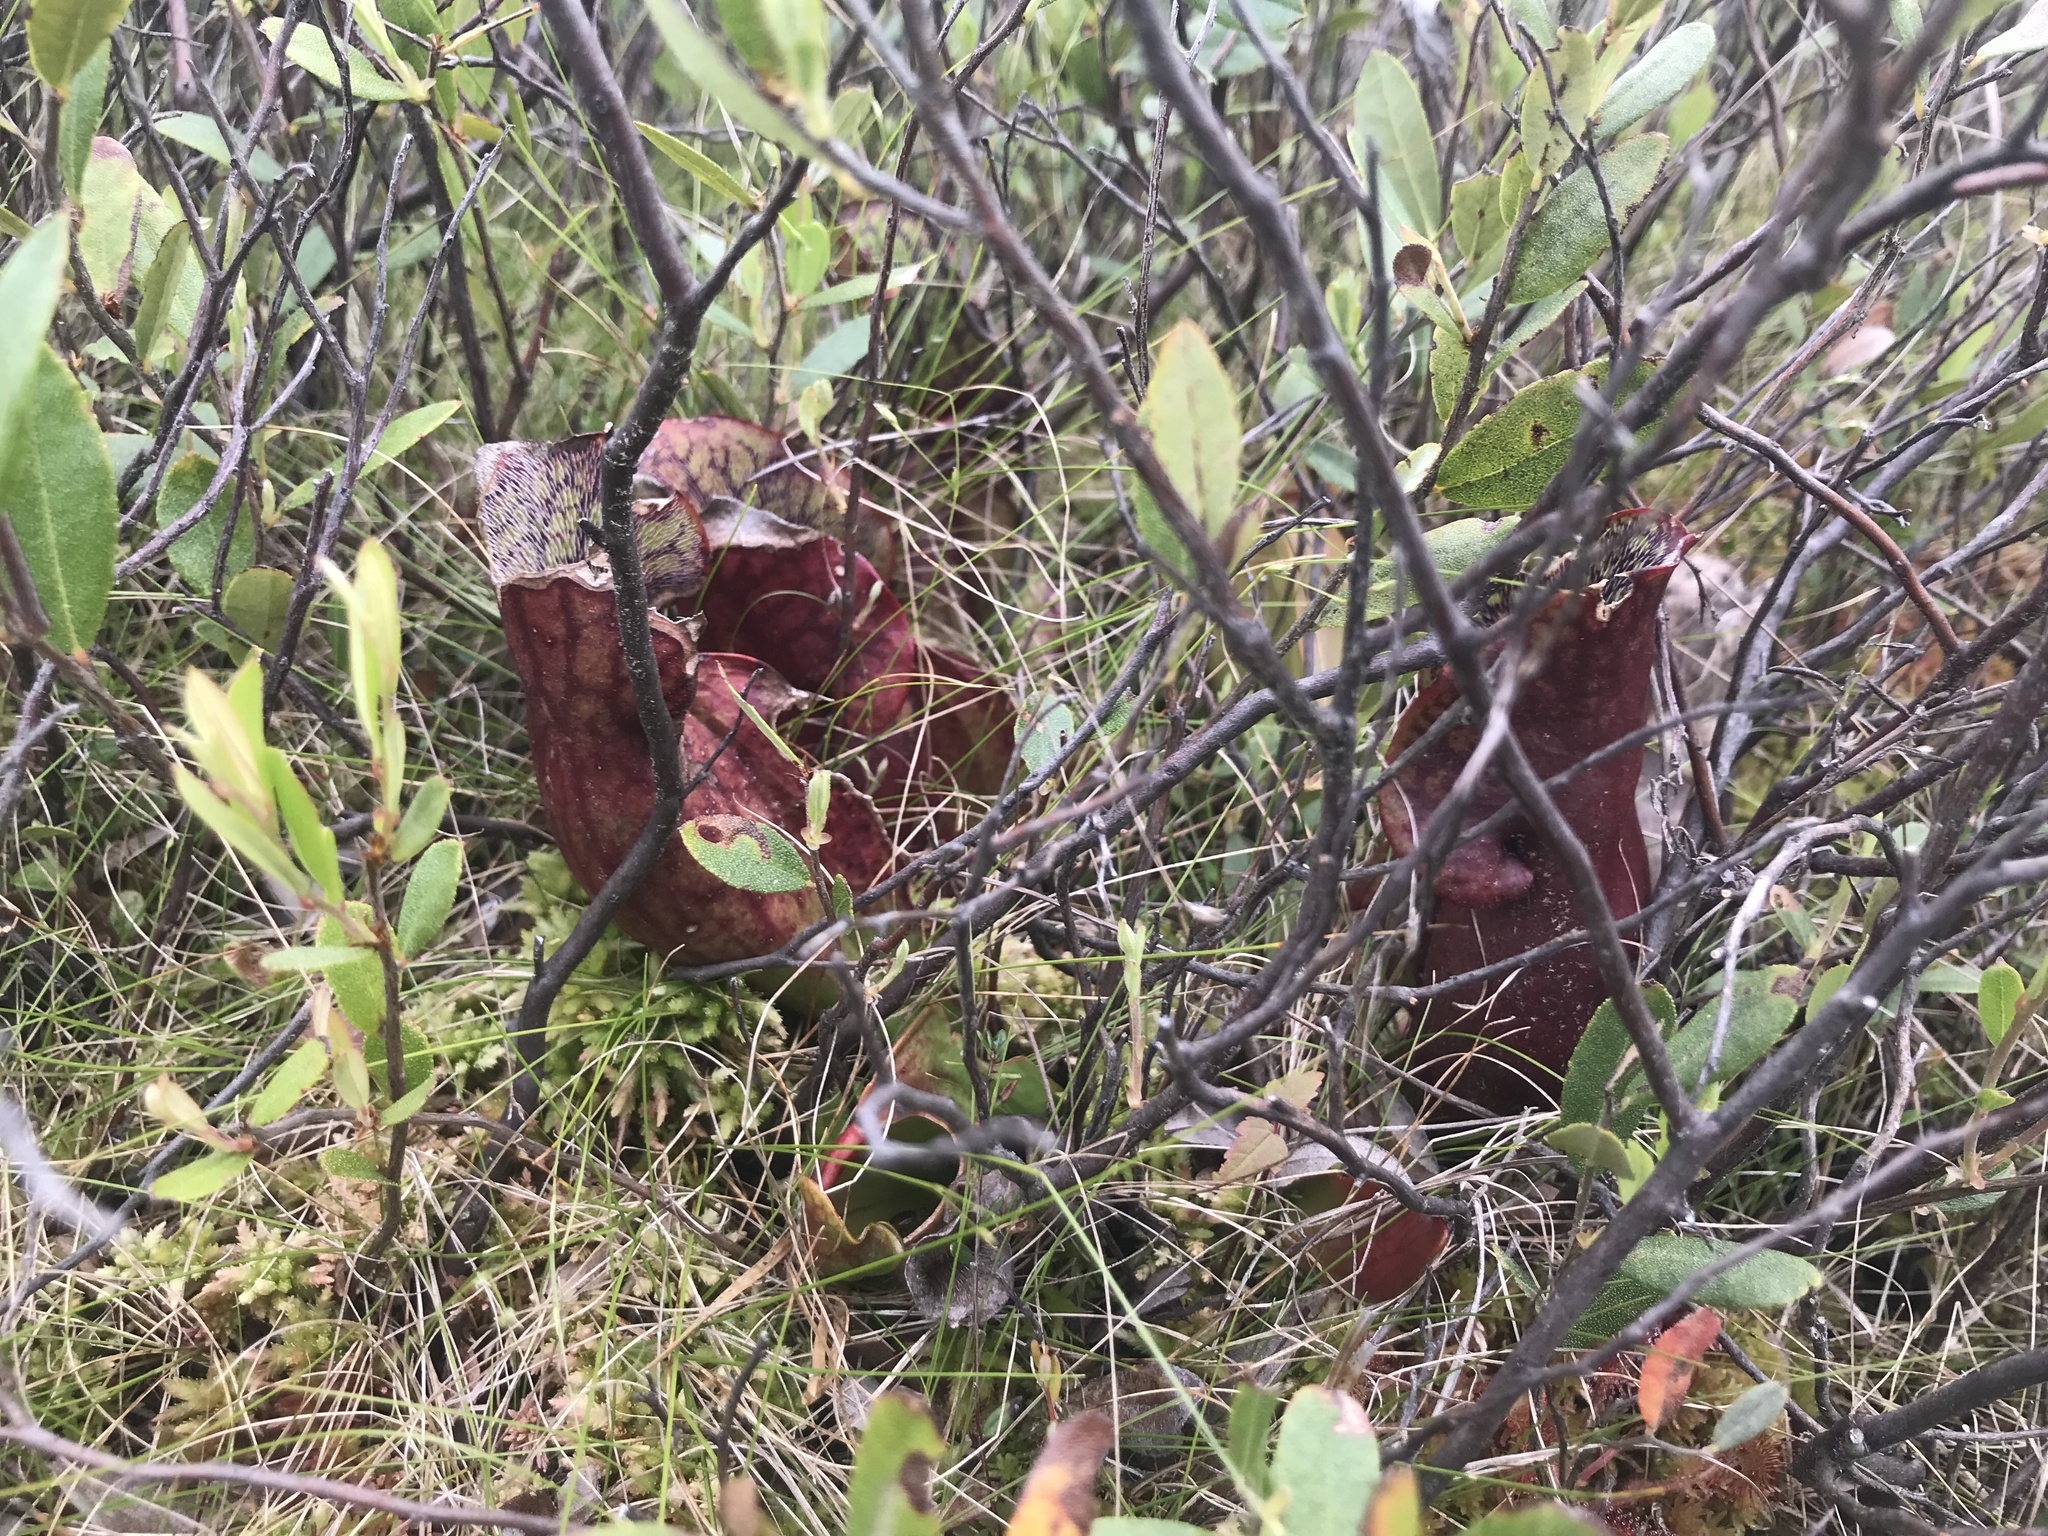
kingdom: Plantae
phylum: Tracheophyta
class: Magnoliopsida
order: Ericales
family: Sarraceniaceae
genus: Sarracenia
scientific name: Sarracenia purpurea
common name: Pitcherplant
